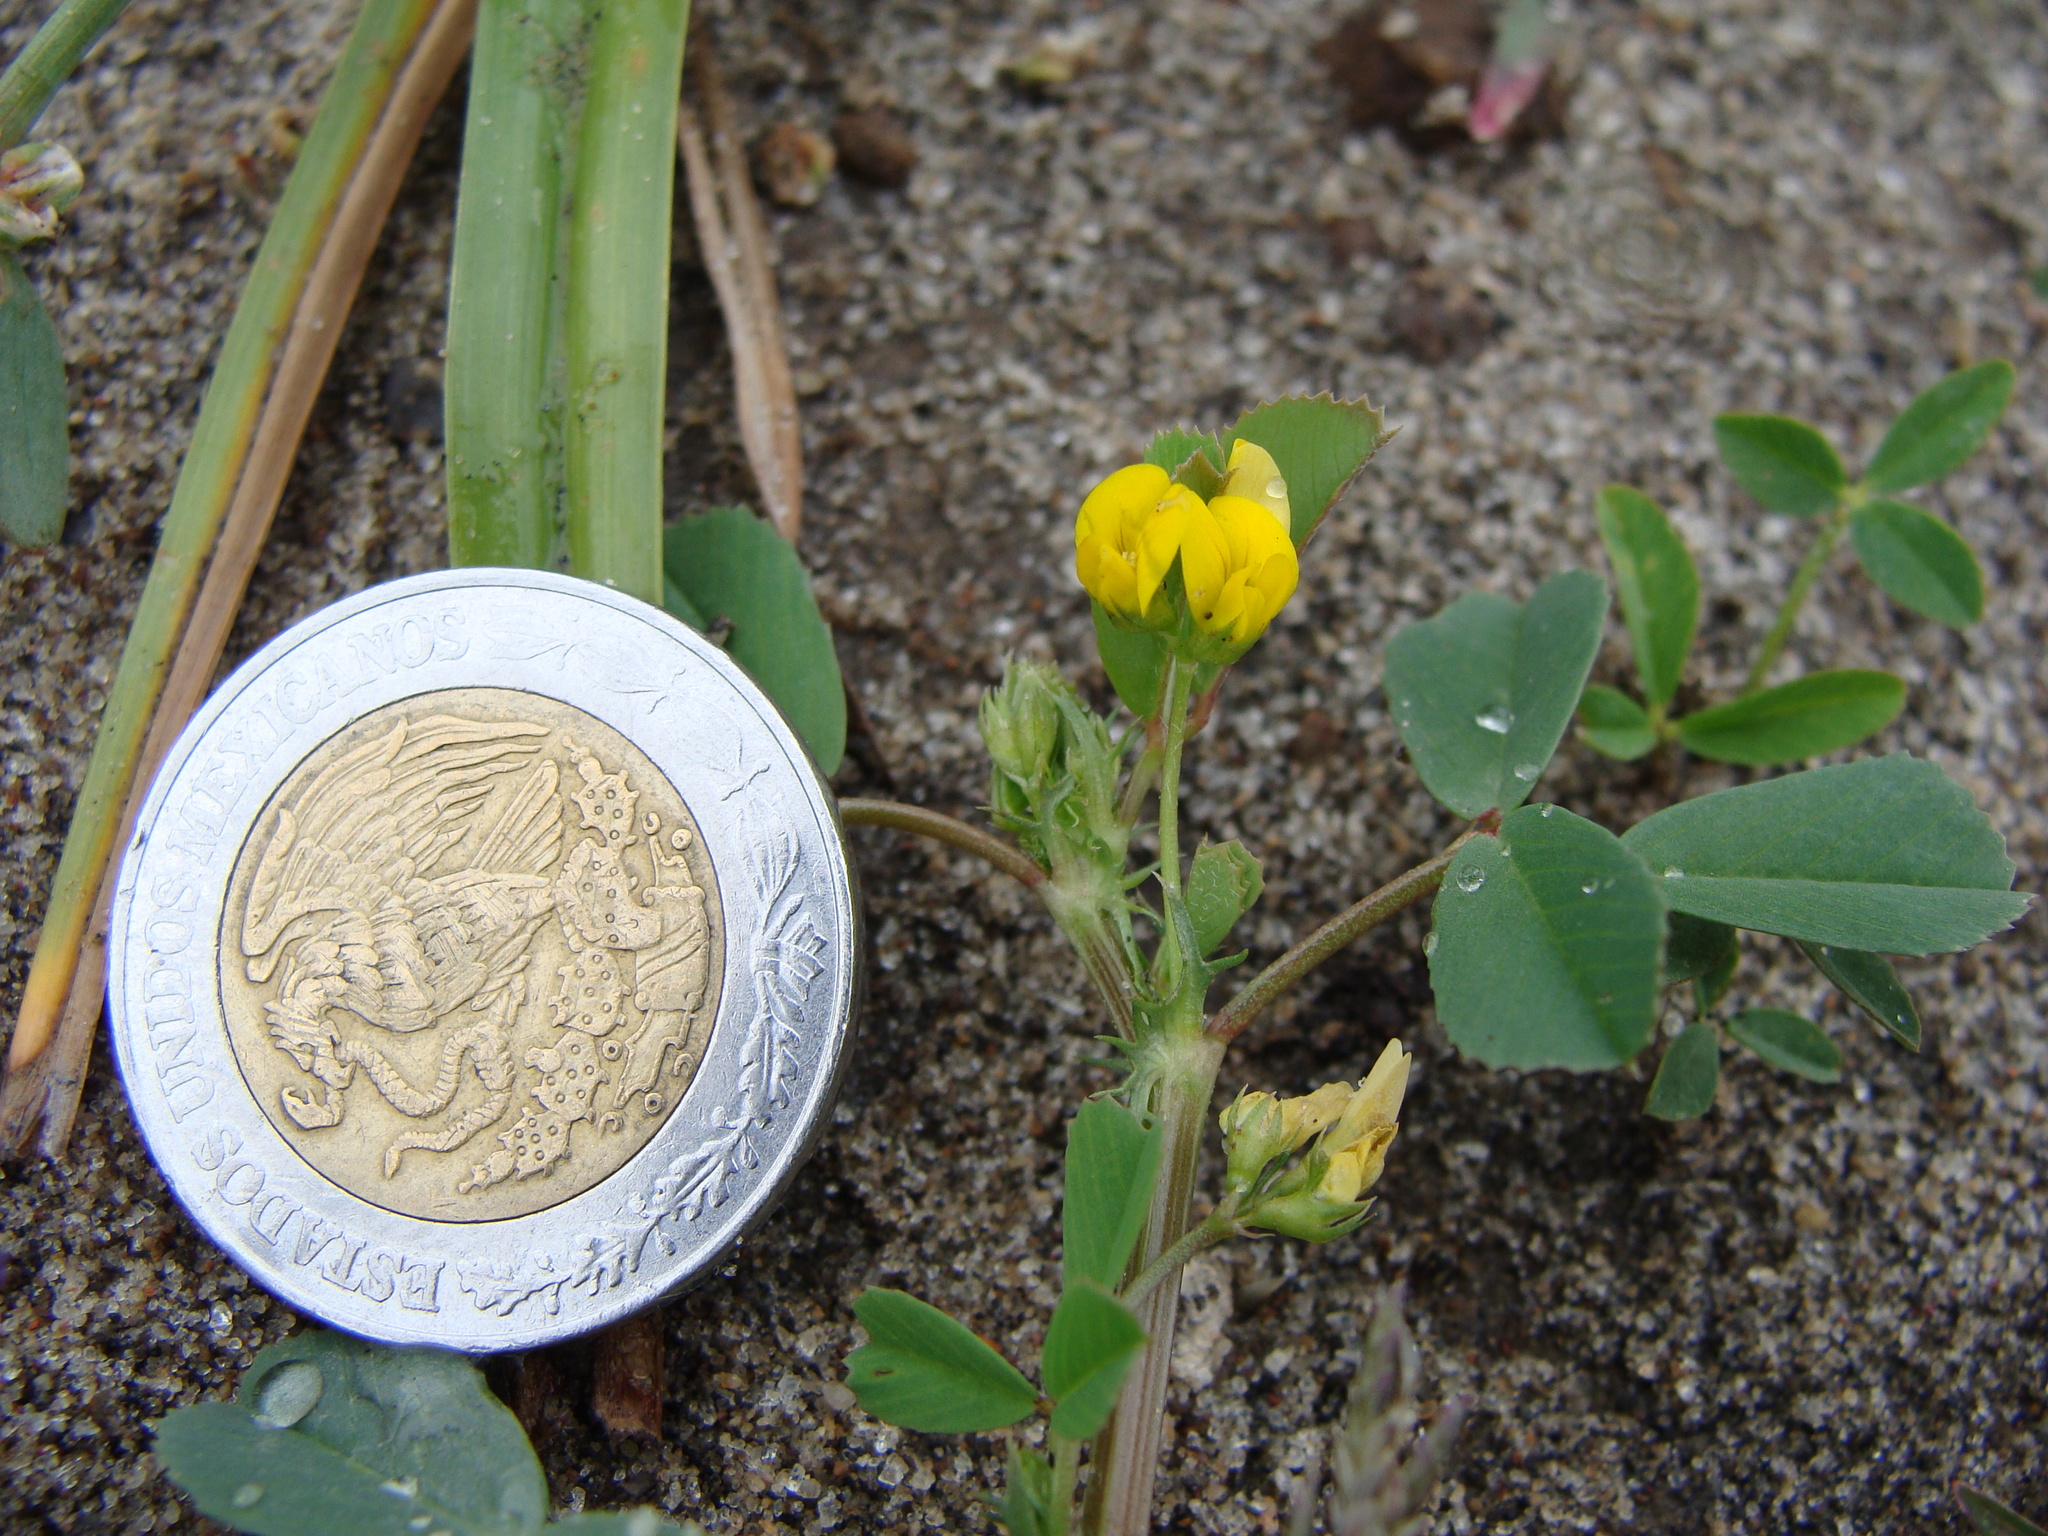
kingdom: Plantae
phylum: Tracheophyta
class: Magnoliopsida
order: Fabales
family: Fabaceae
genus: Medicago
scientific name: Medicago lupulina
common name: Black medick
